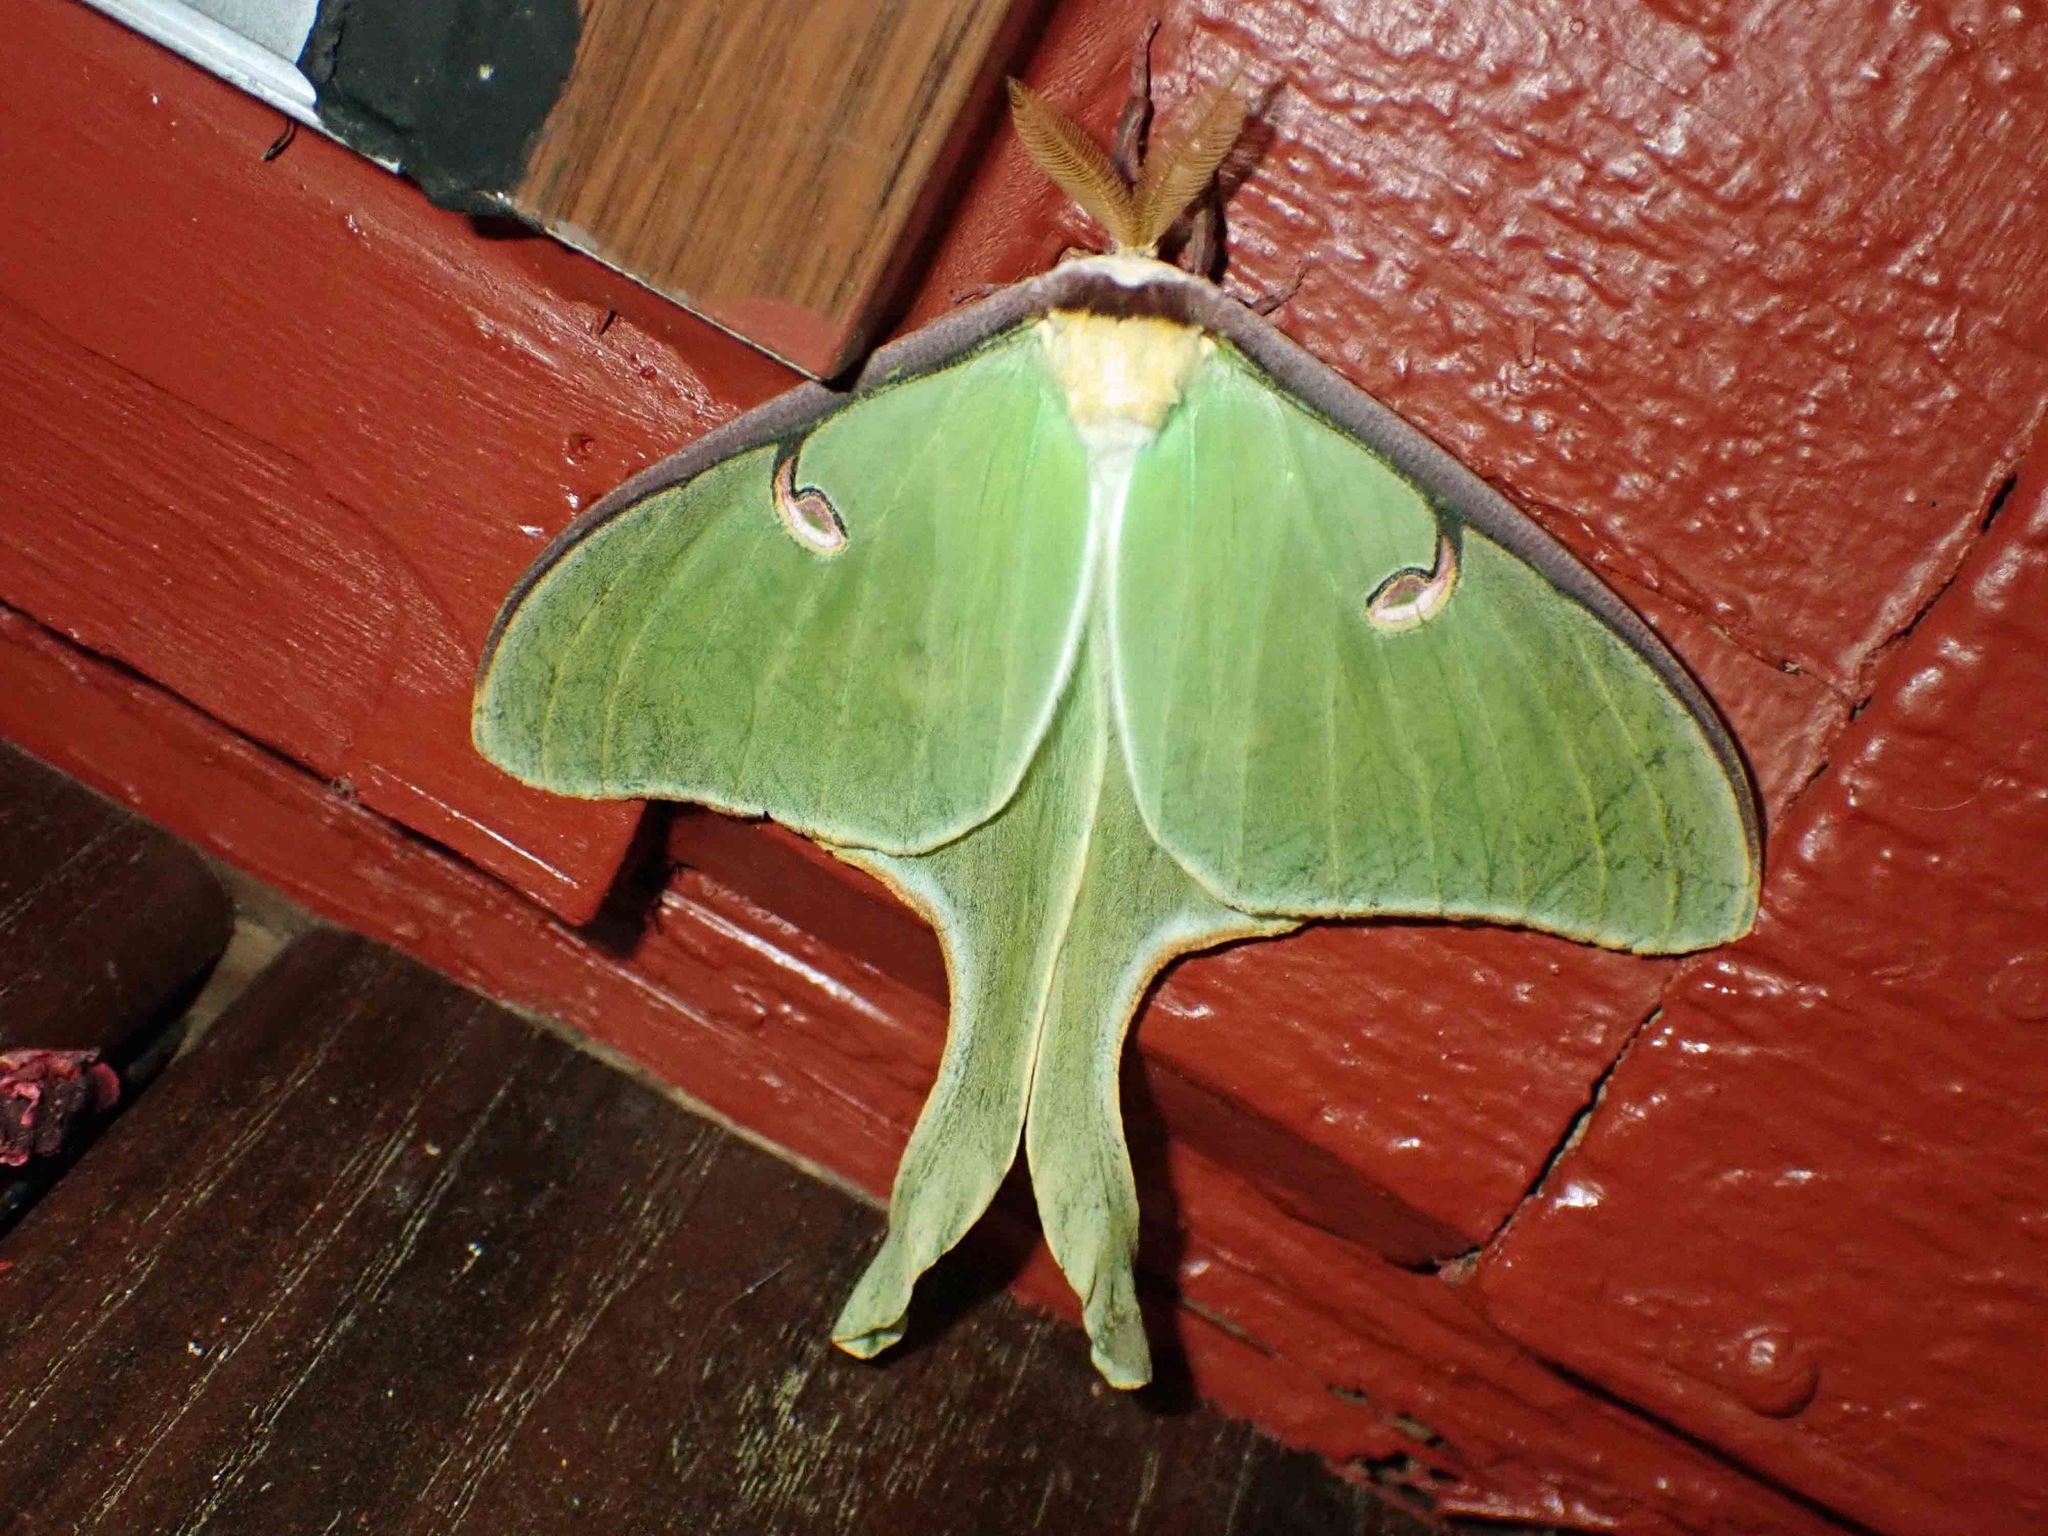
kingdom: Animalia
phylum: Arthropoda
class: Insecta
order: Lepidoptera
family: Saturniidae
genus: Actias
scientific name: Actias luna
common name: Luna moth
